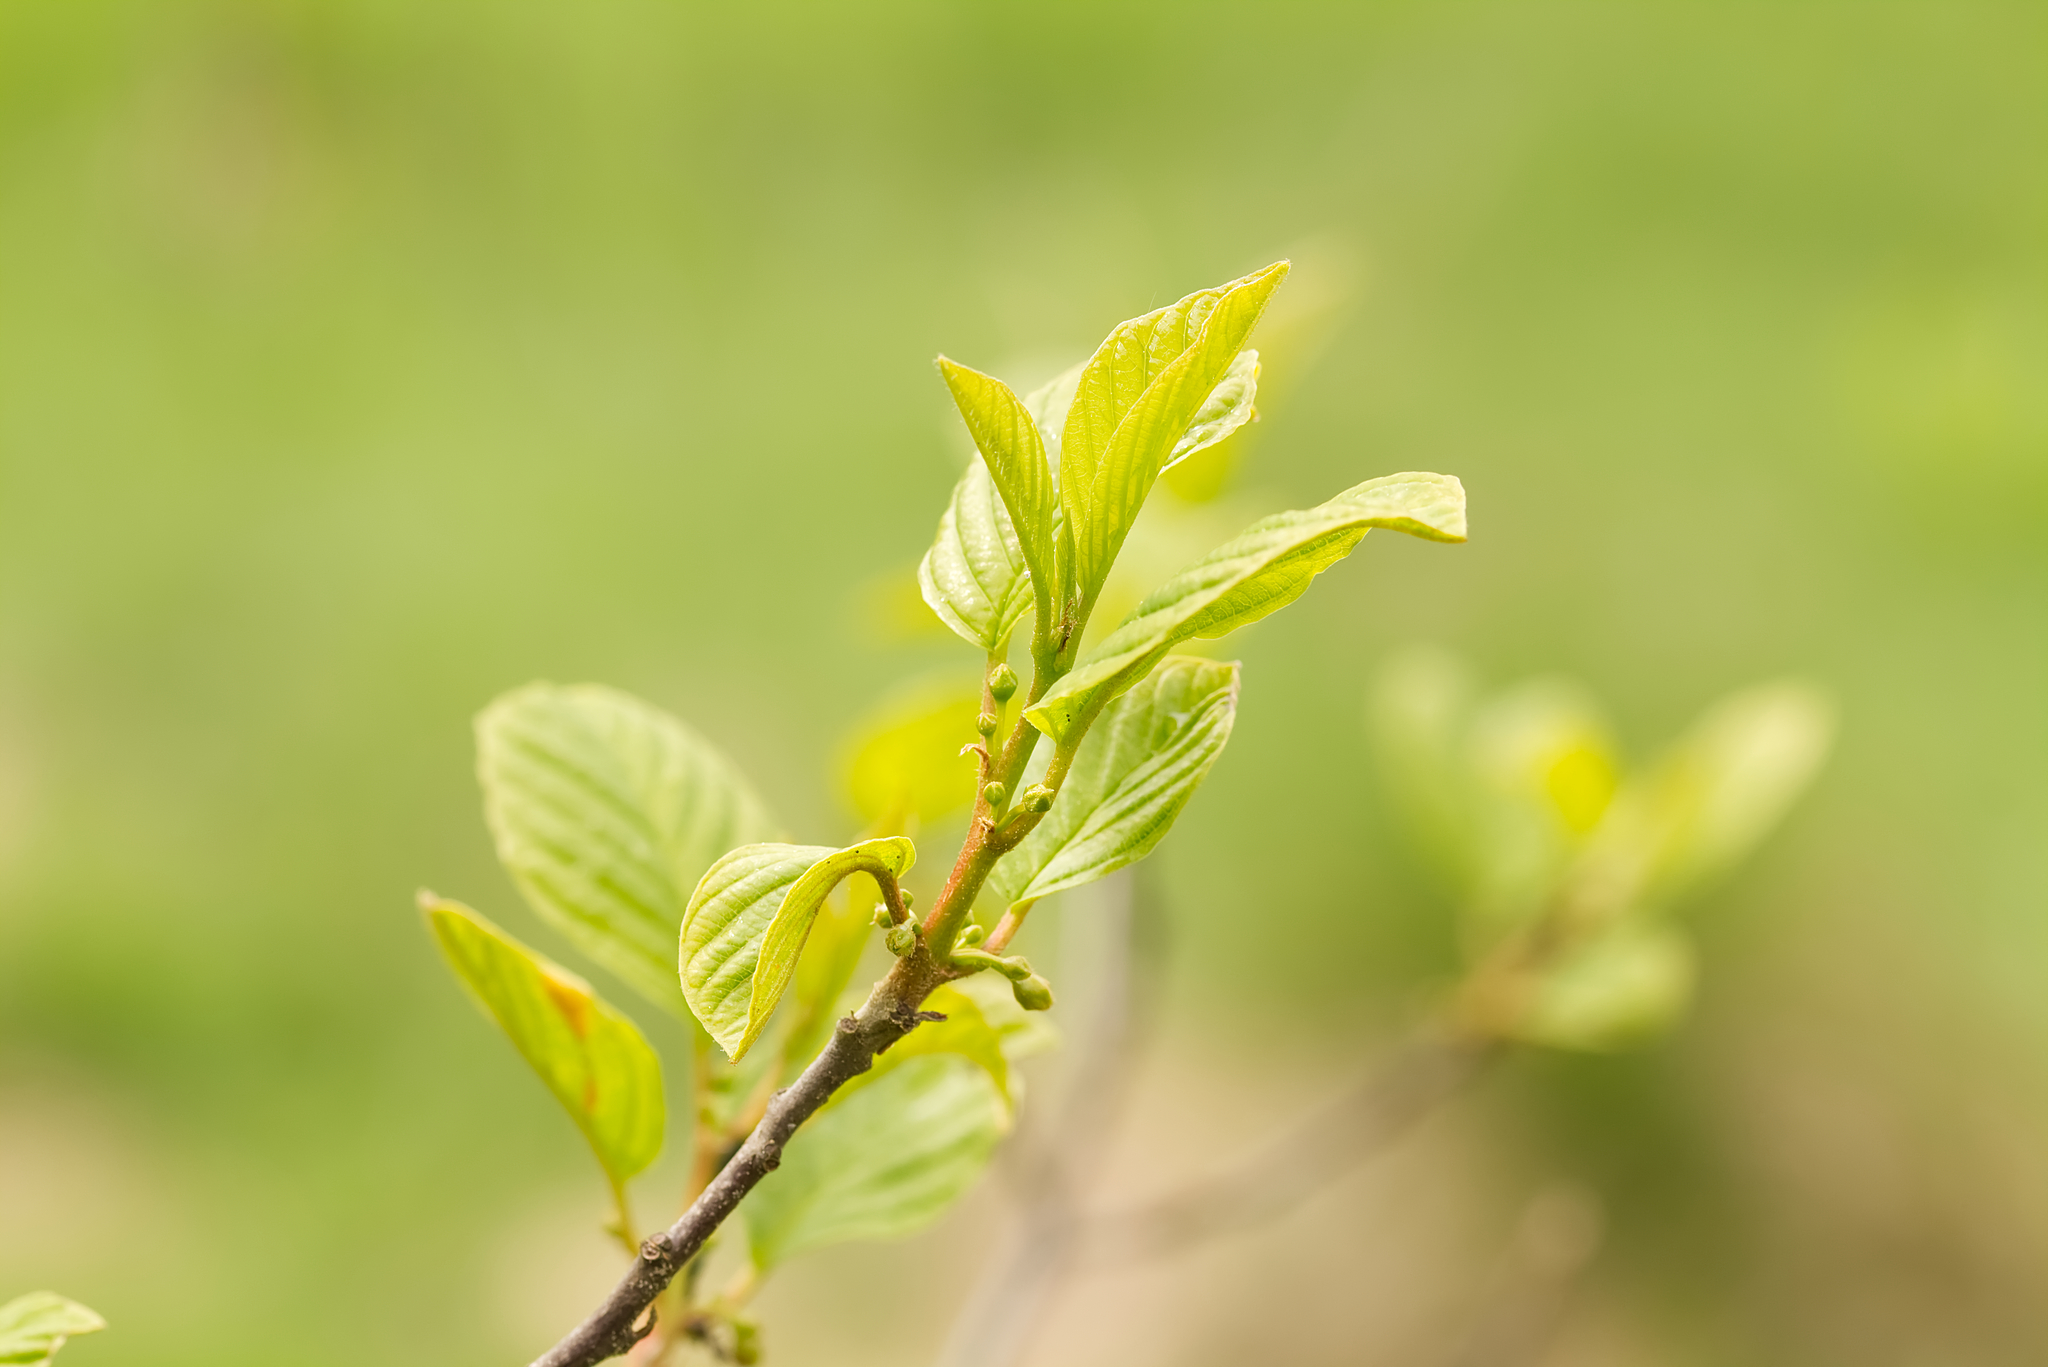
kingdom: Plantae
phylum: Tracheophyta
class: Magnoliopsida
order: Rosales
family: Rhamnaceae
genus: Frangula
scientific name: Frangula alnus
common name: Alder buckthorn
